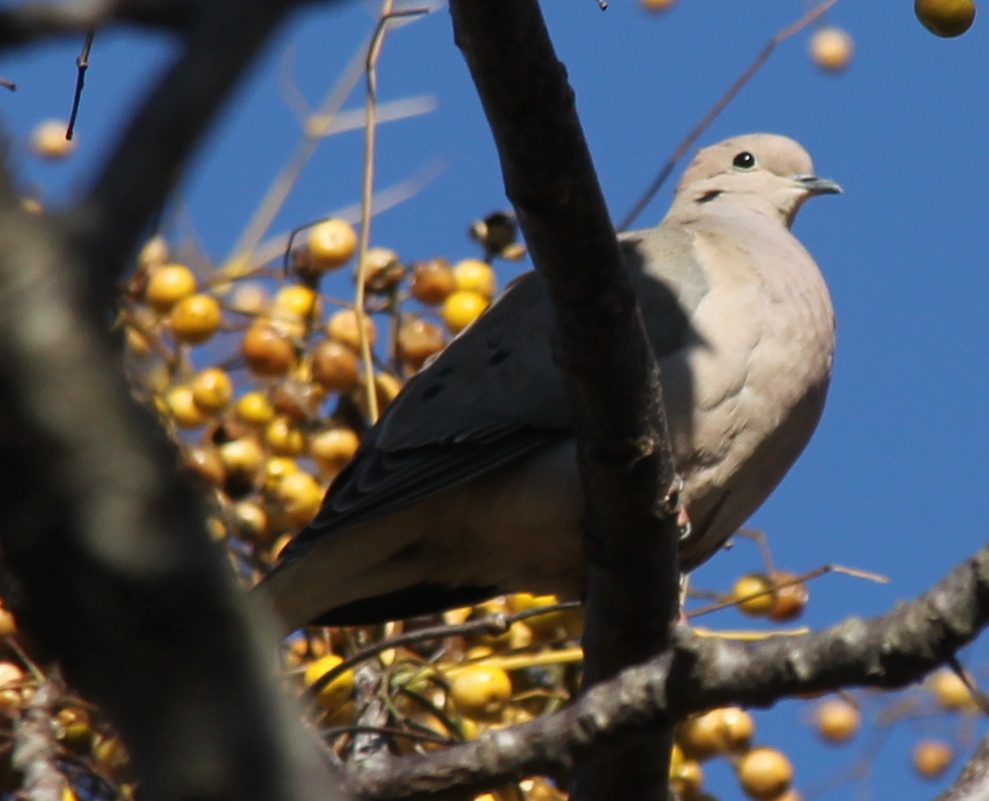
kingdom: Animalia
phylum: Chordata
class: Aves
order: Columbiformes
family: Columbidae
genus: Zenaida
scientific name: Zenaida auriculata
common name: Eared dove
